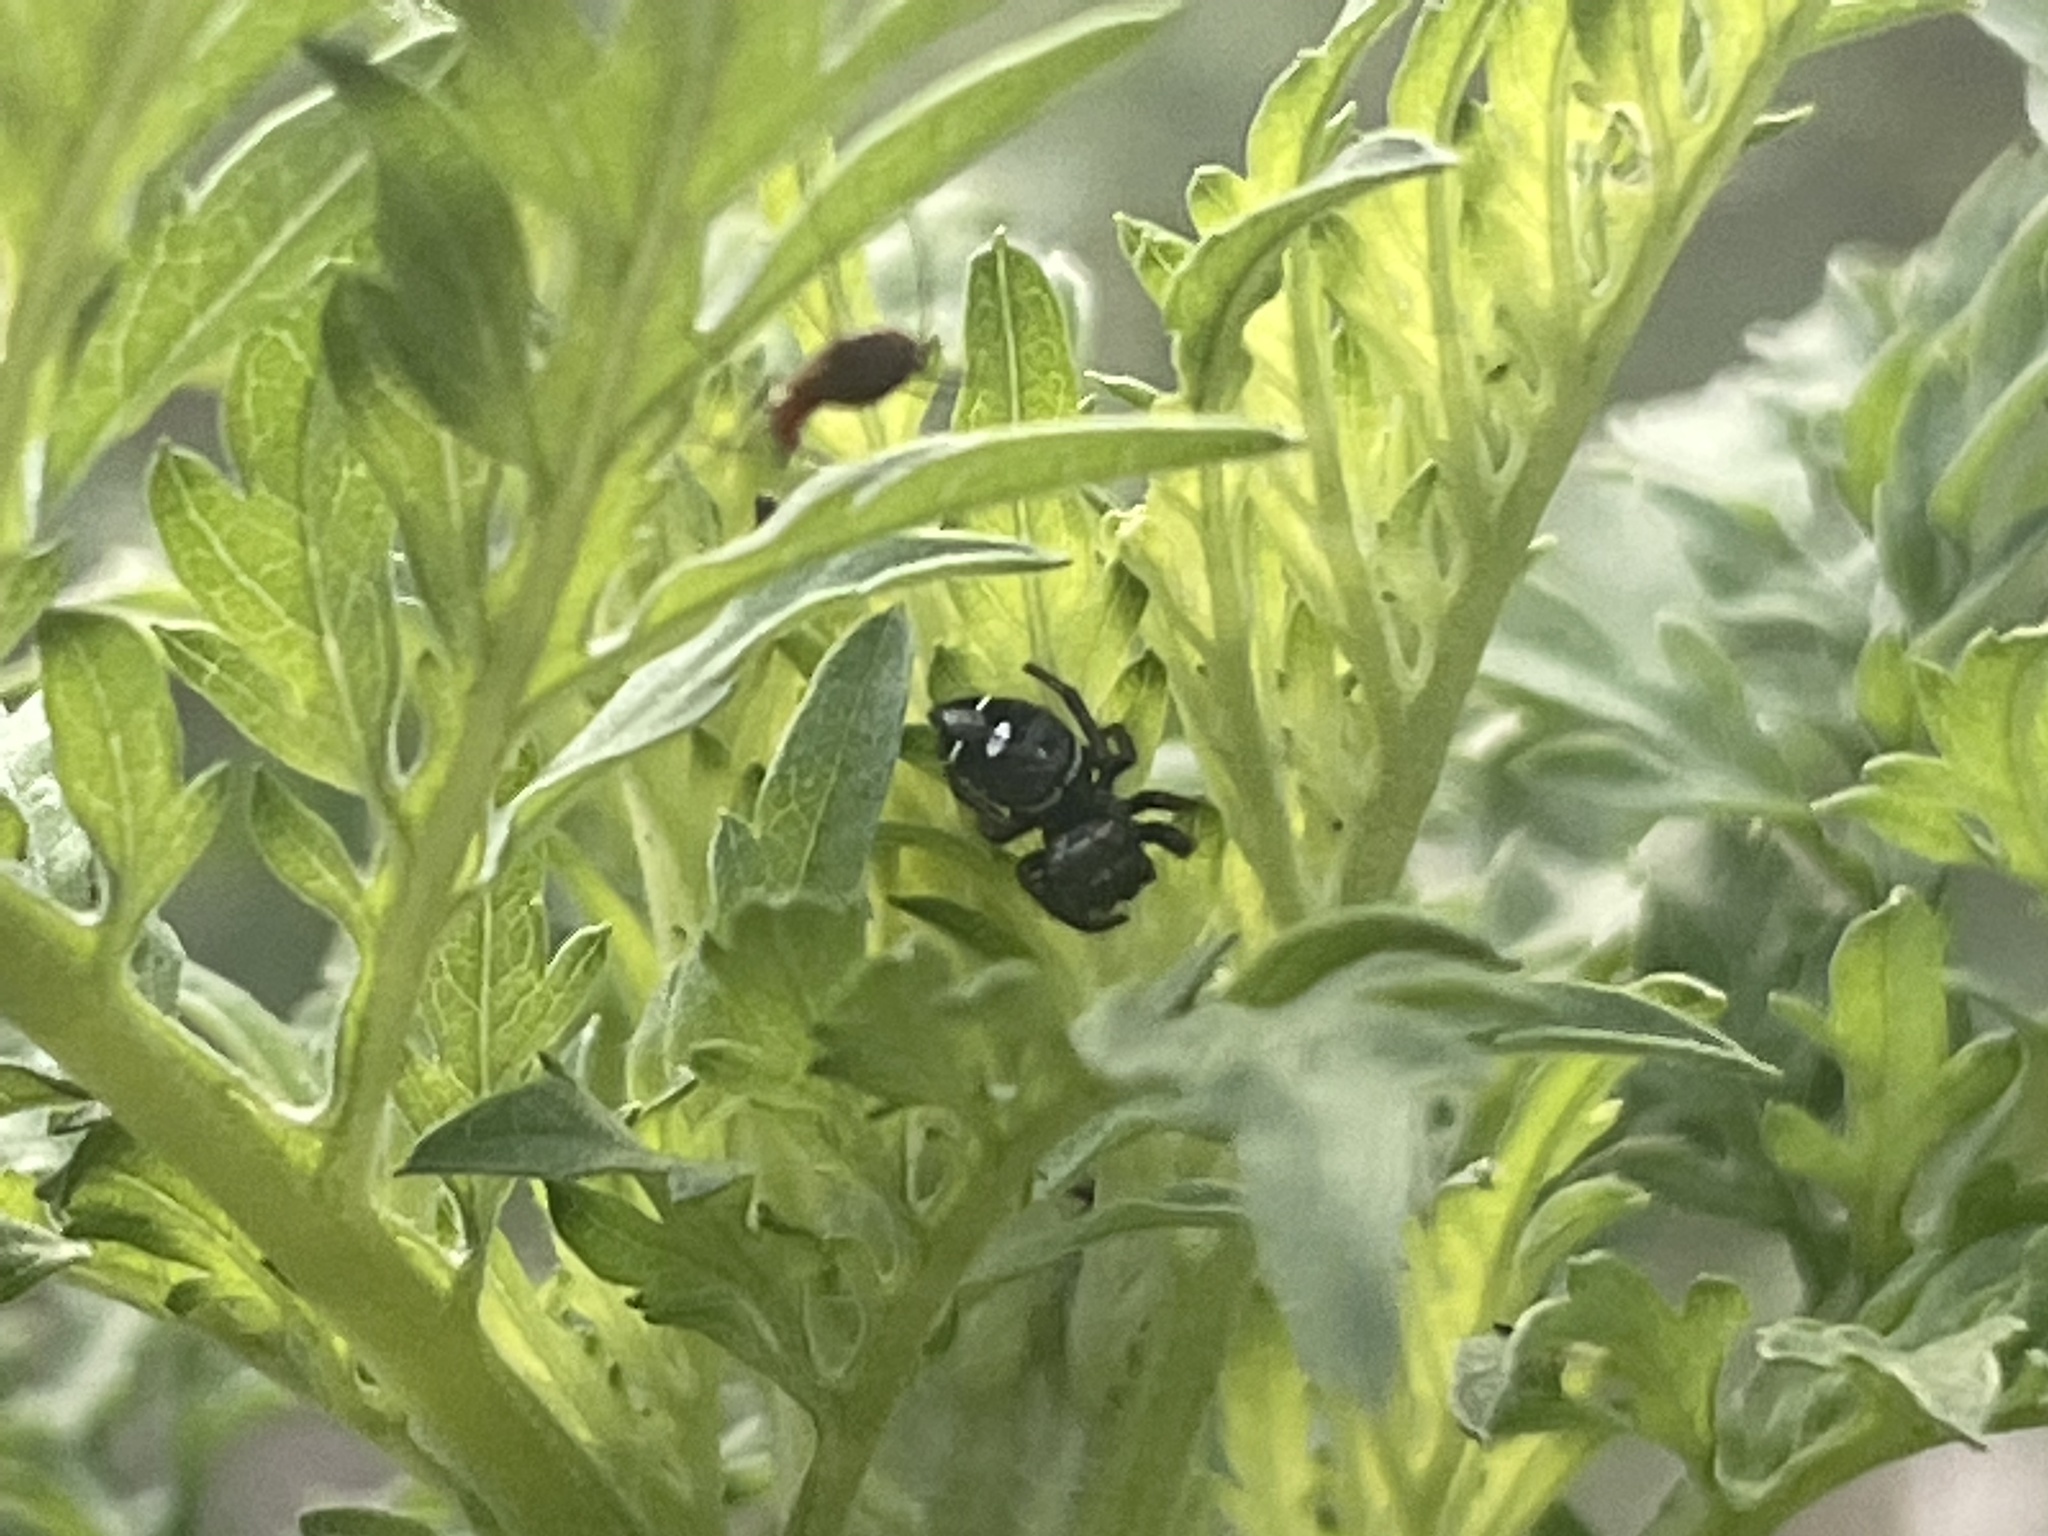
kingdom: Animalia
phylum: Arthropoda
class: Arachnida
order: Araneae
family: Salticidae
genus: Phidippus
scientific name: Phidippus audax
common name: Bold jumper
